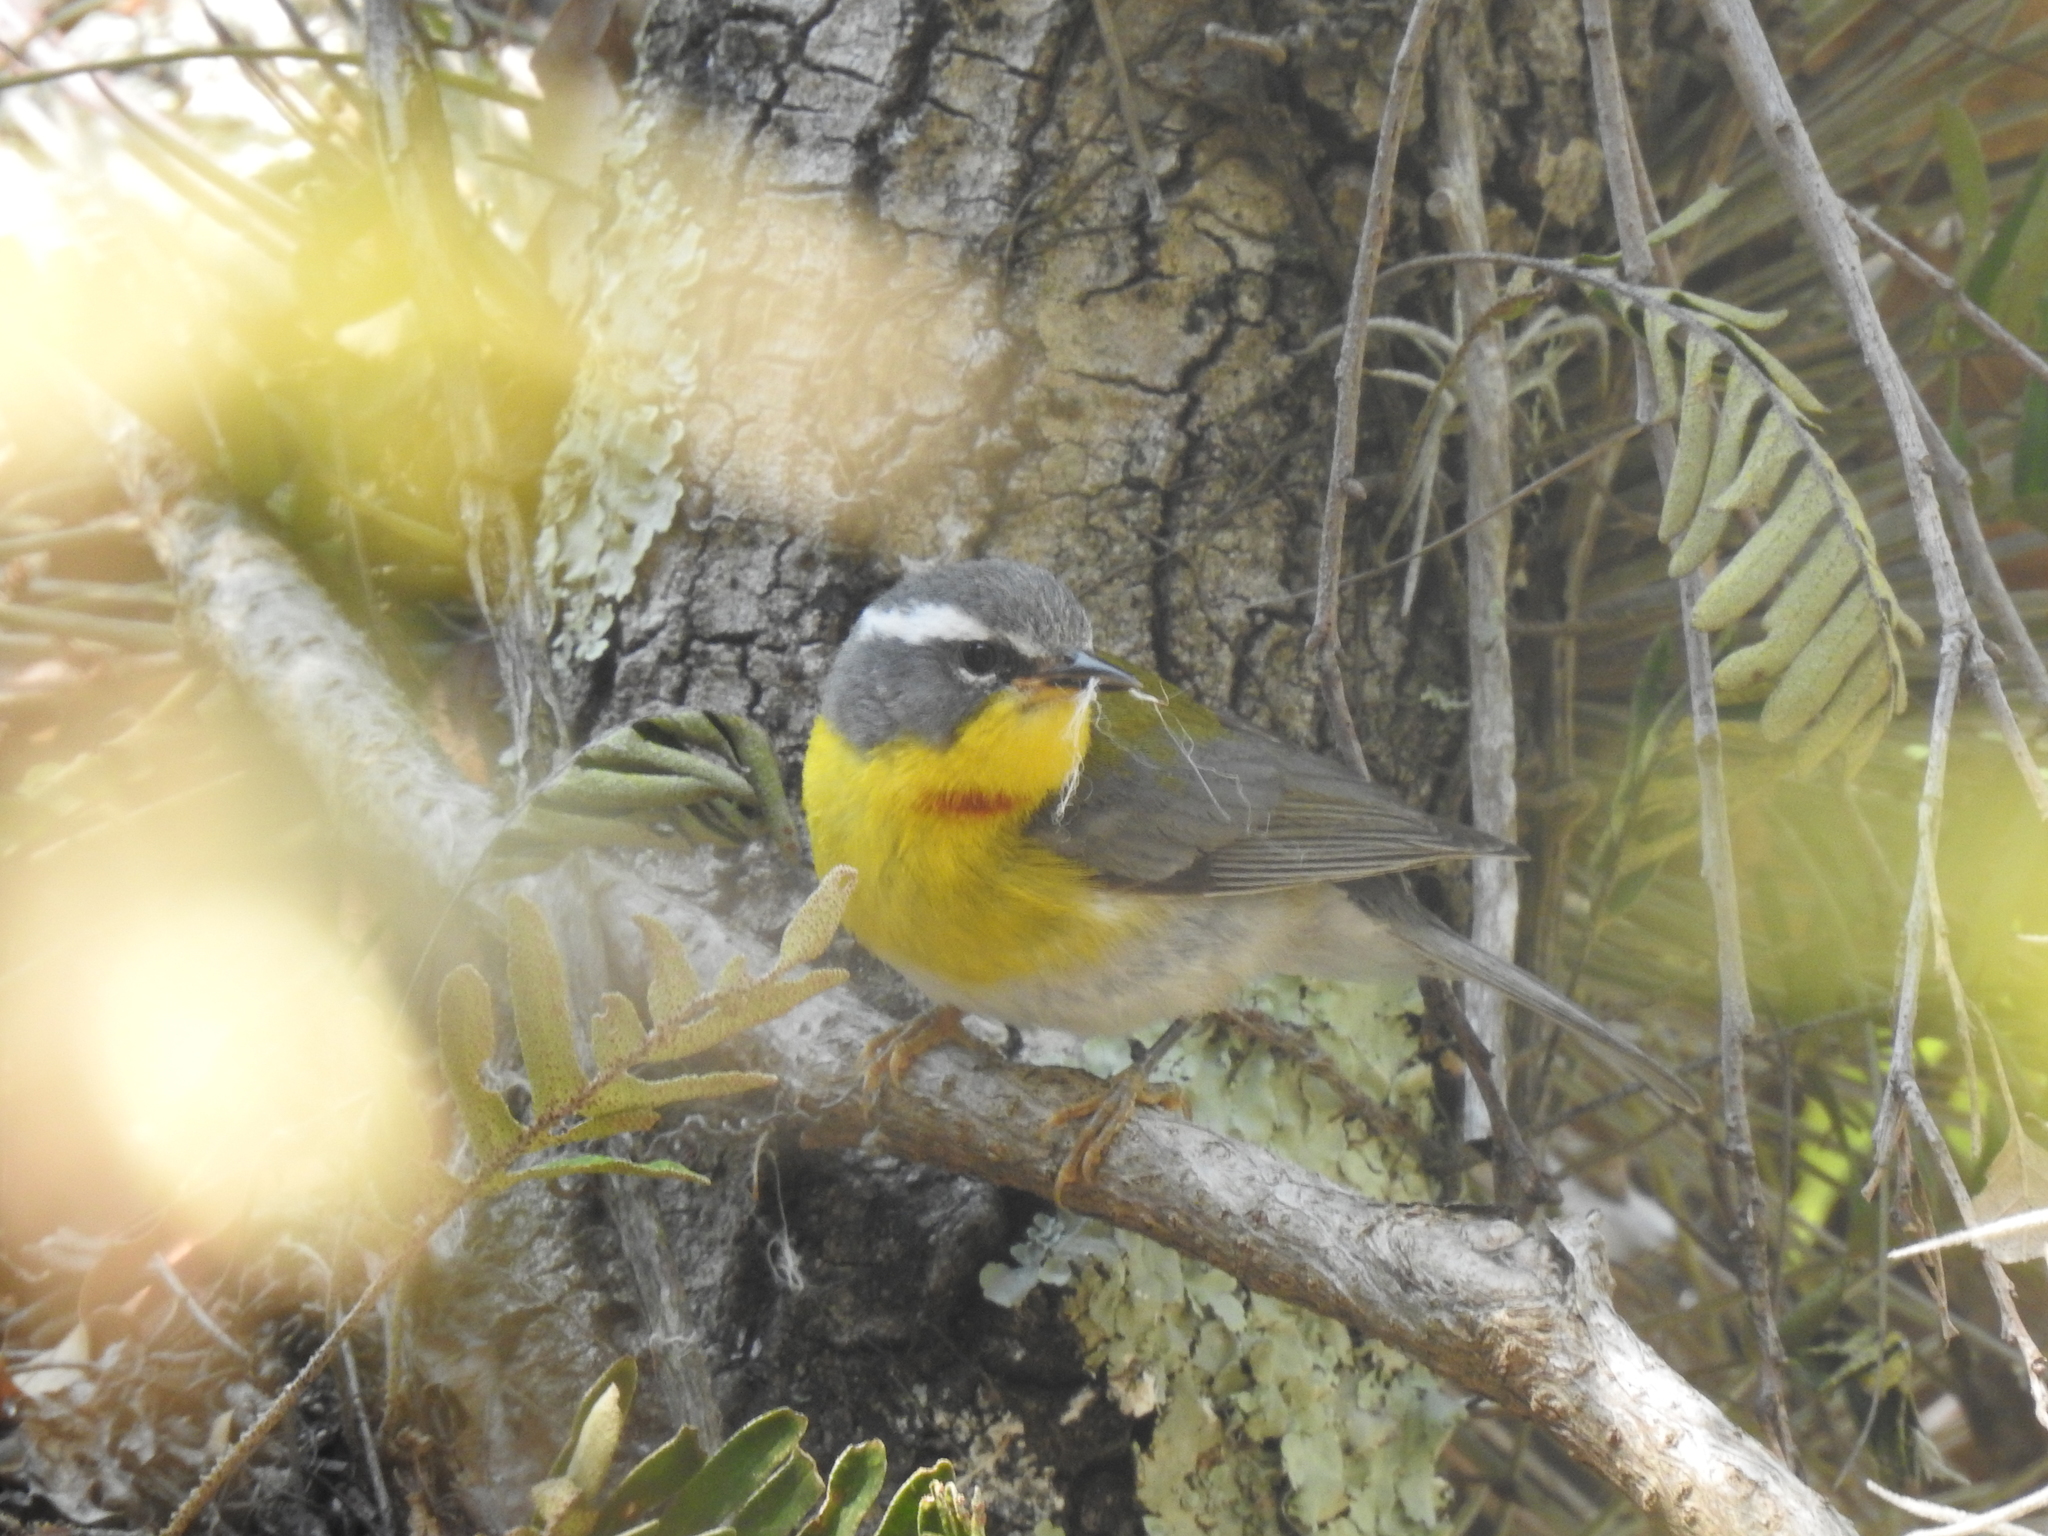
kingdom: Animalia
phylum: Chordata
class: Aves
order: Passeriformes
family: Parulidae
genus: Oreothlypis
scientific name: Oreothlypis superciliosa
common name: Crescent-chested warbler
